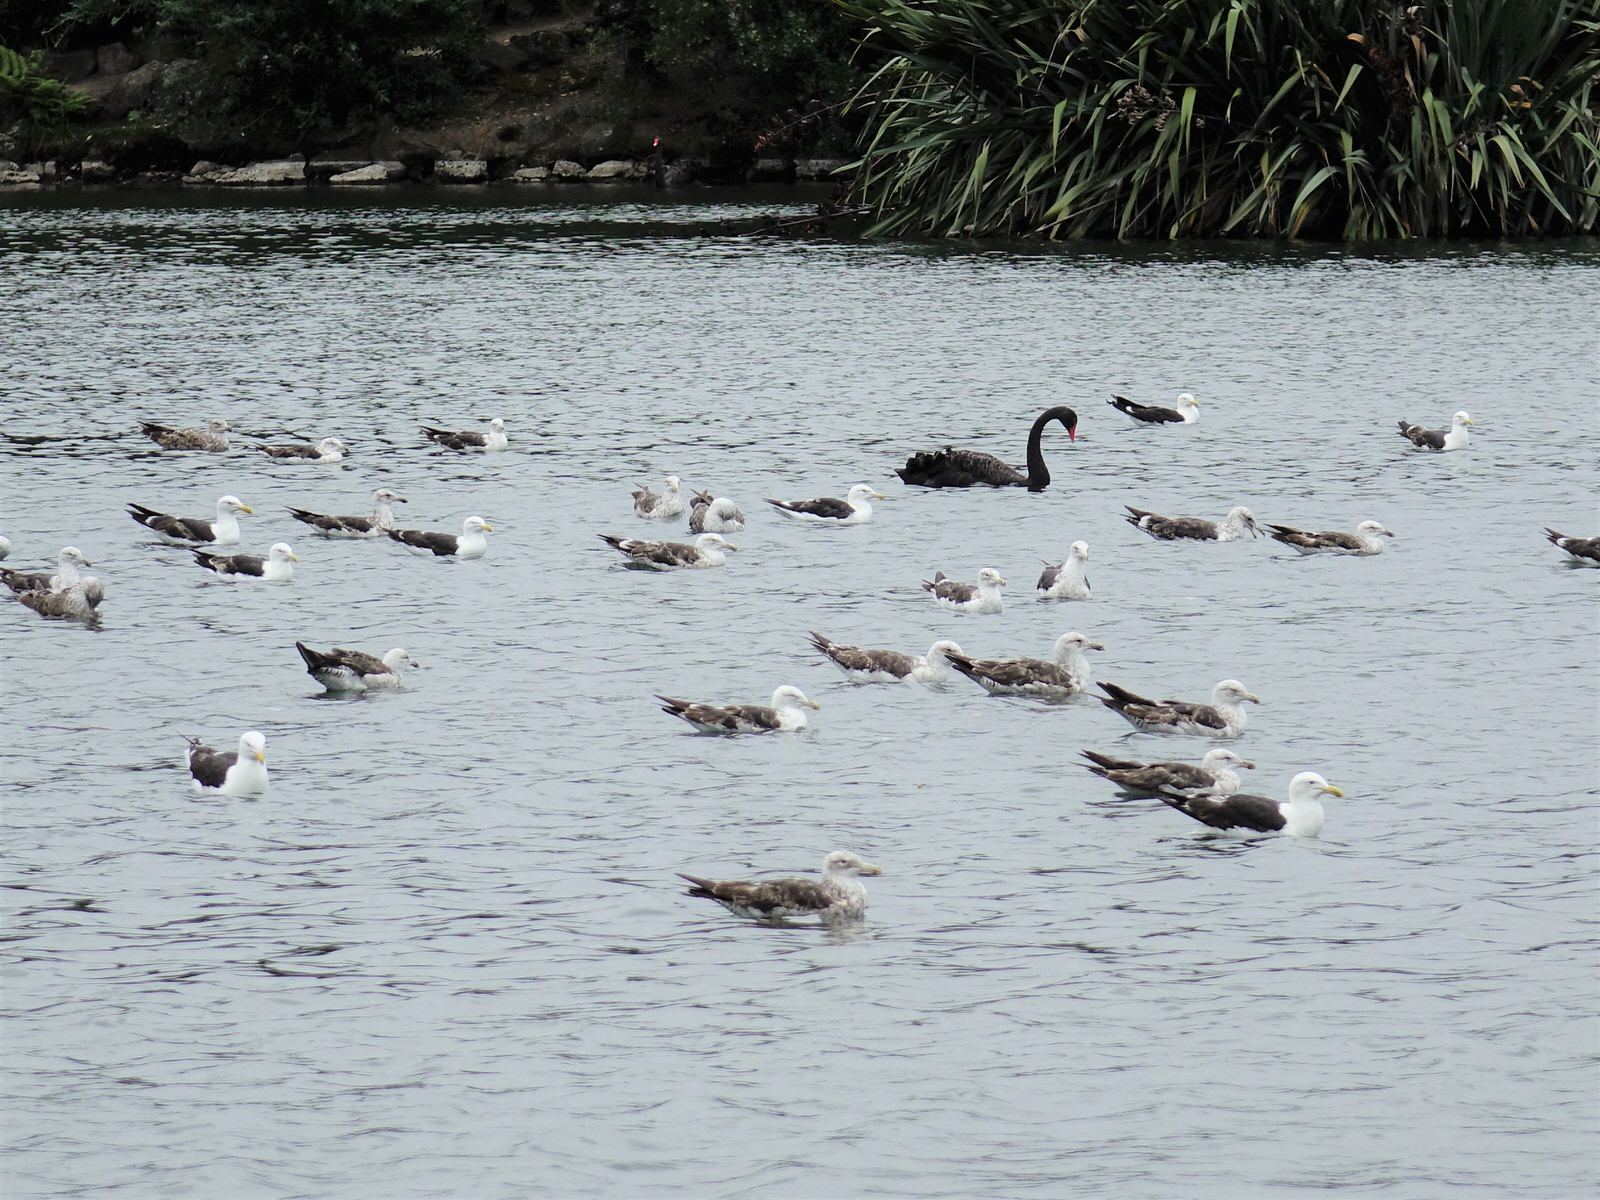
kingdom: Animalia
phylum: Chordata
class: Aves
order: Charadriiformes
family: Laridae
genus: Larus
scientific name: Larus dominicanus
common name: Kelp gull
